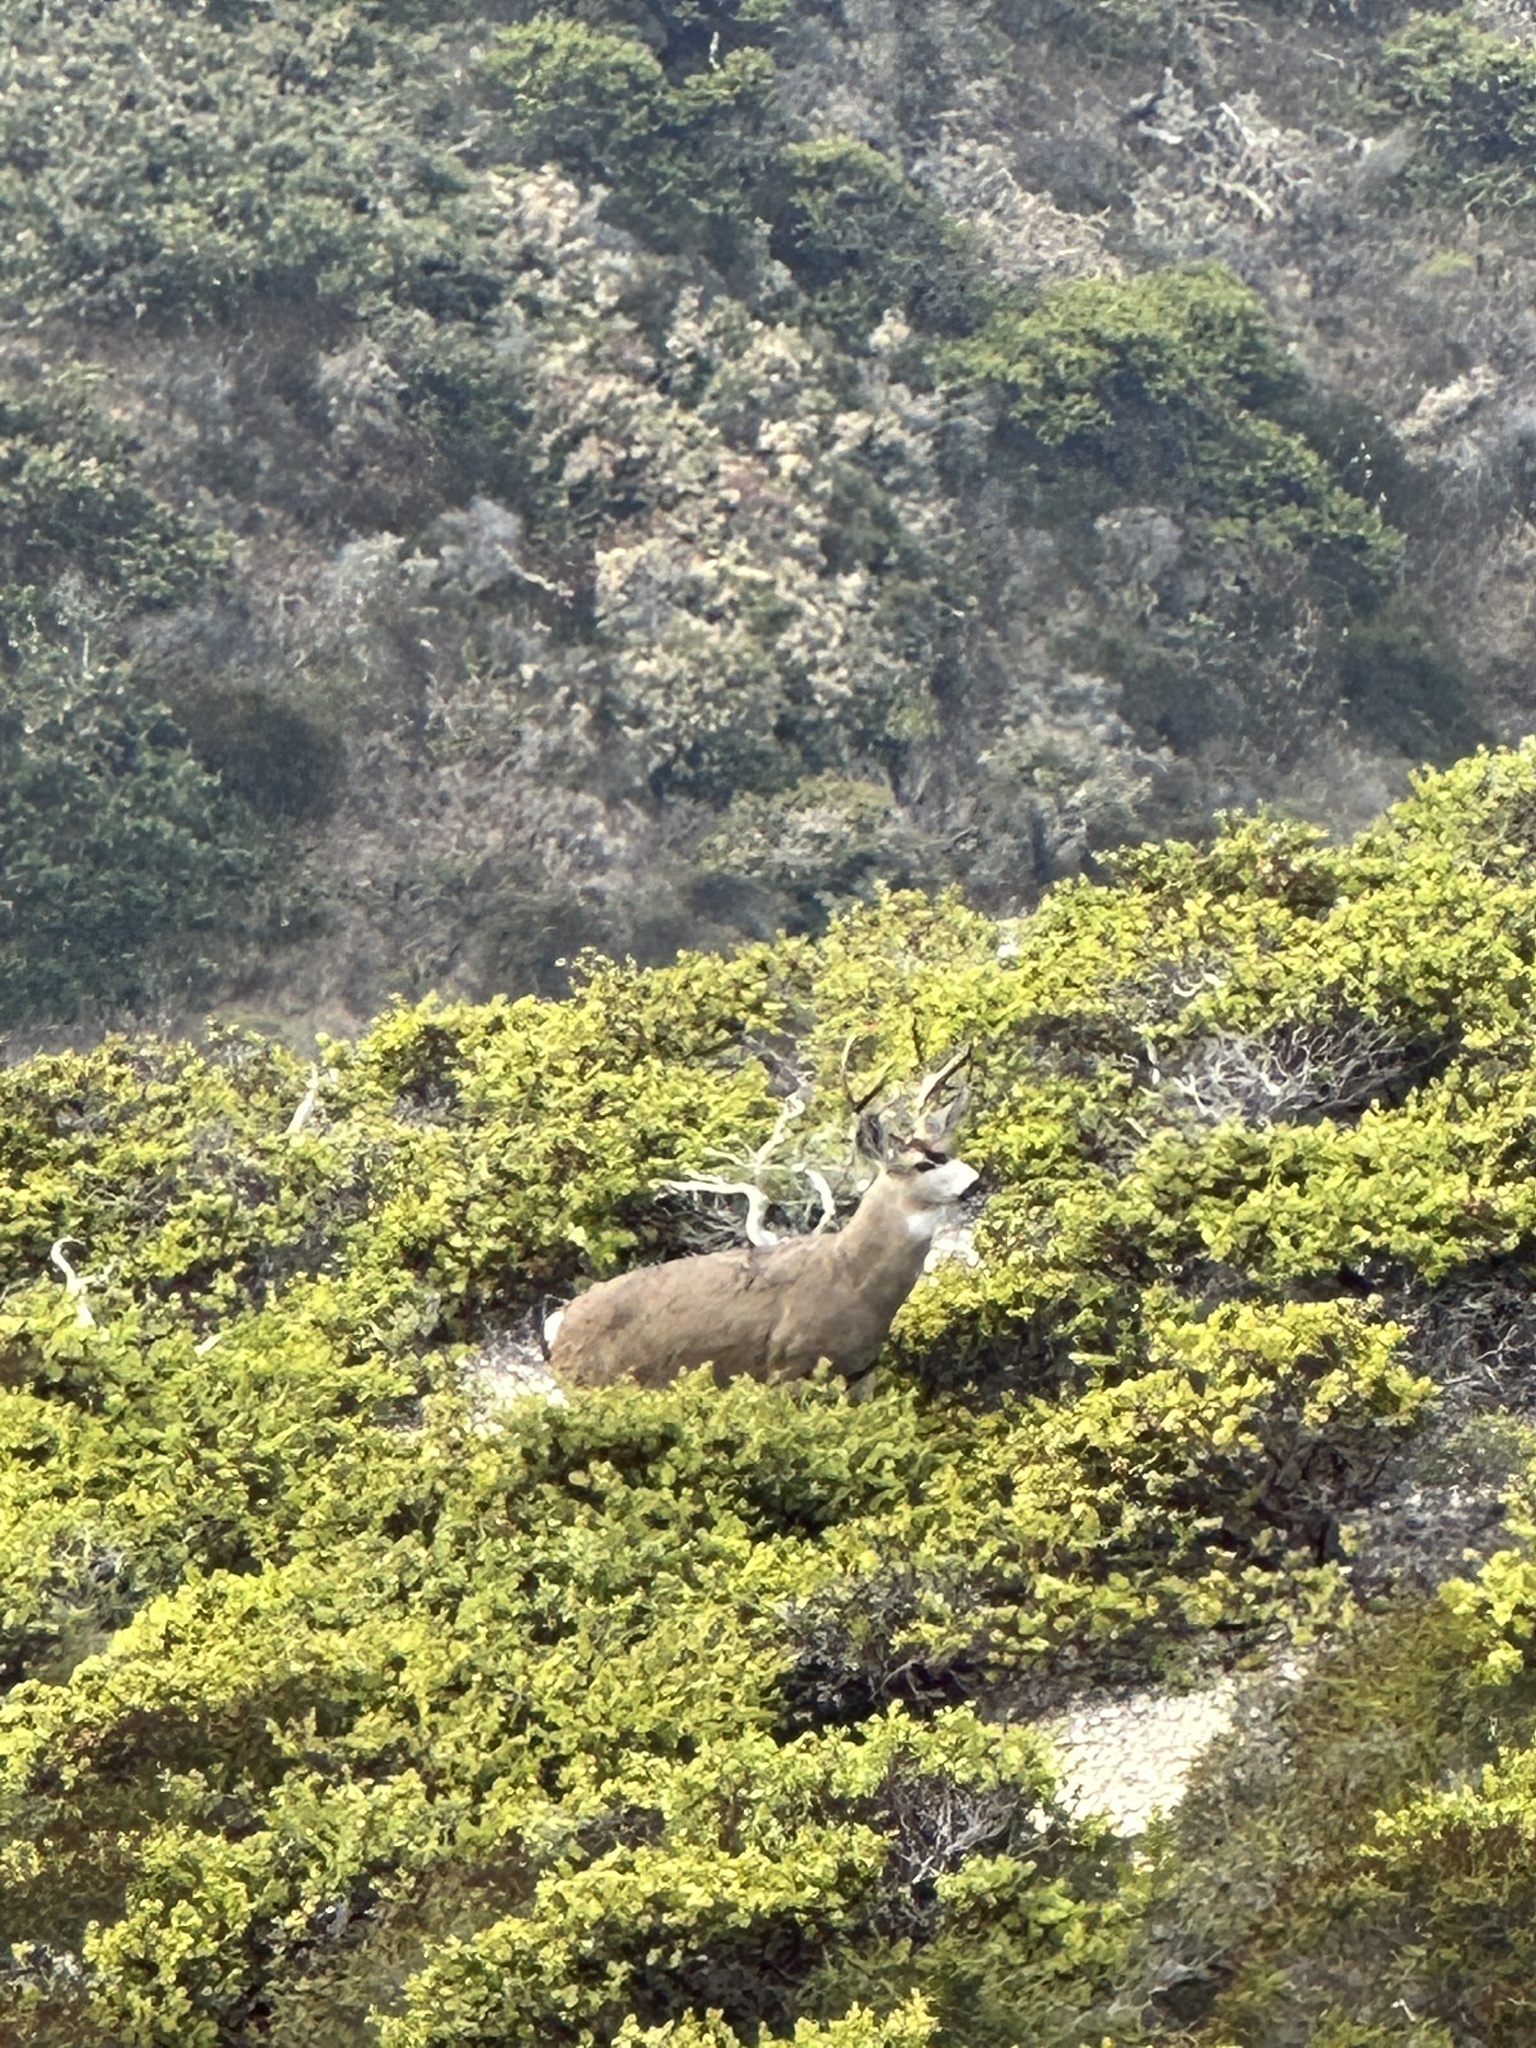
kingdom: Animalia
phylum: Chordata
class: Mammalia
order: Artiodactyla
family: Cervidae
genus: Odocoileus
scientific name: Odocoileus hemionus
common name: Mule deer
